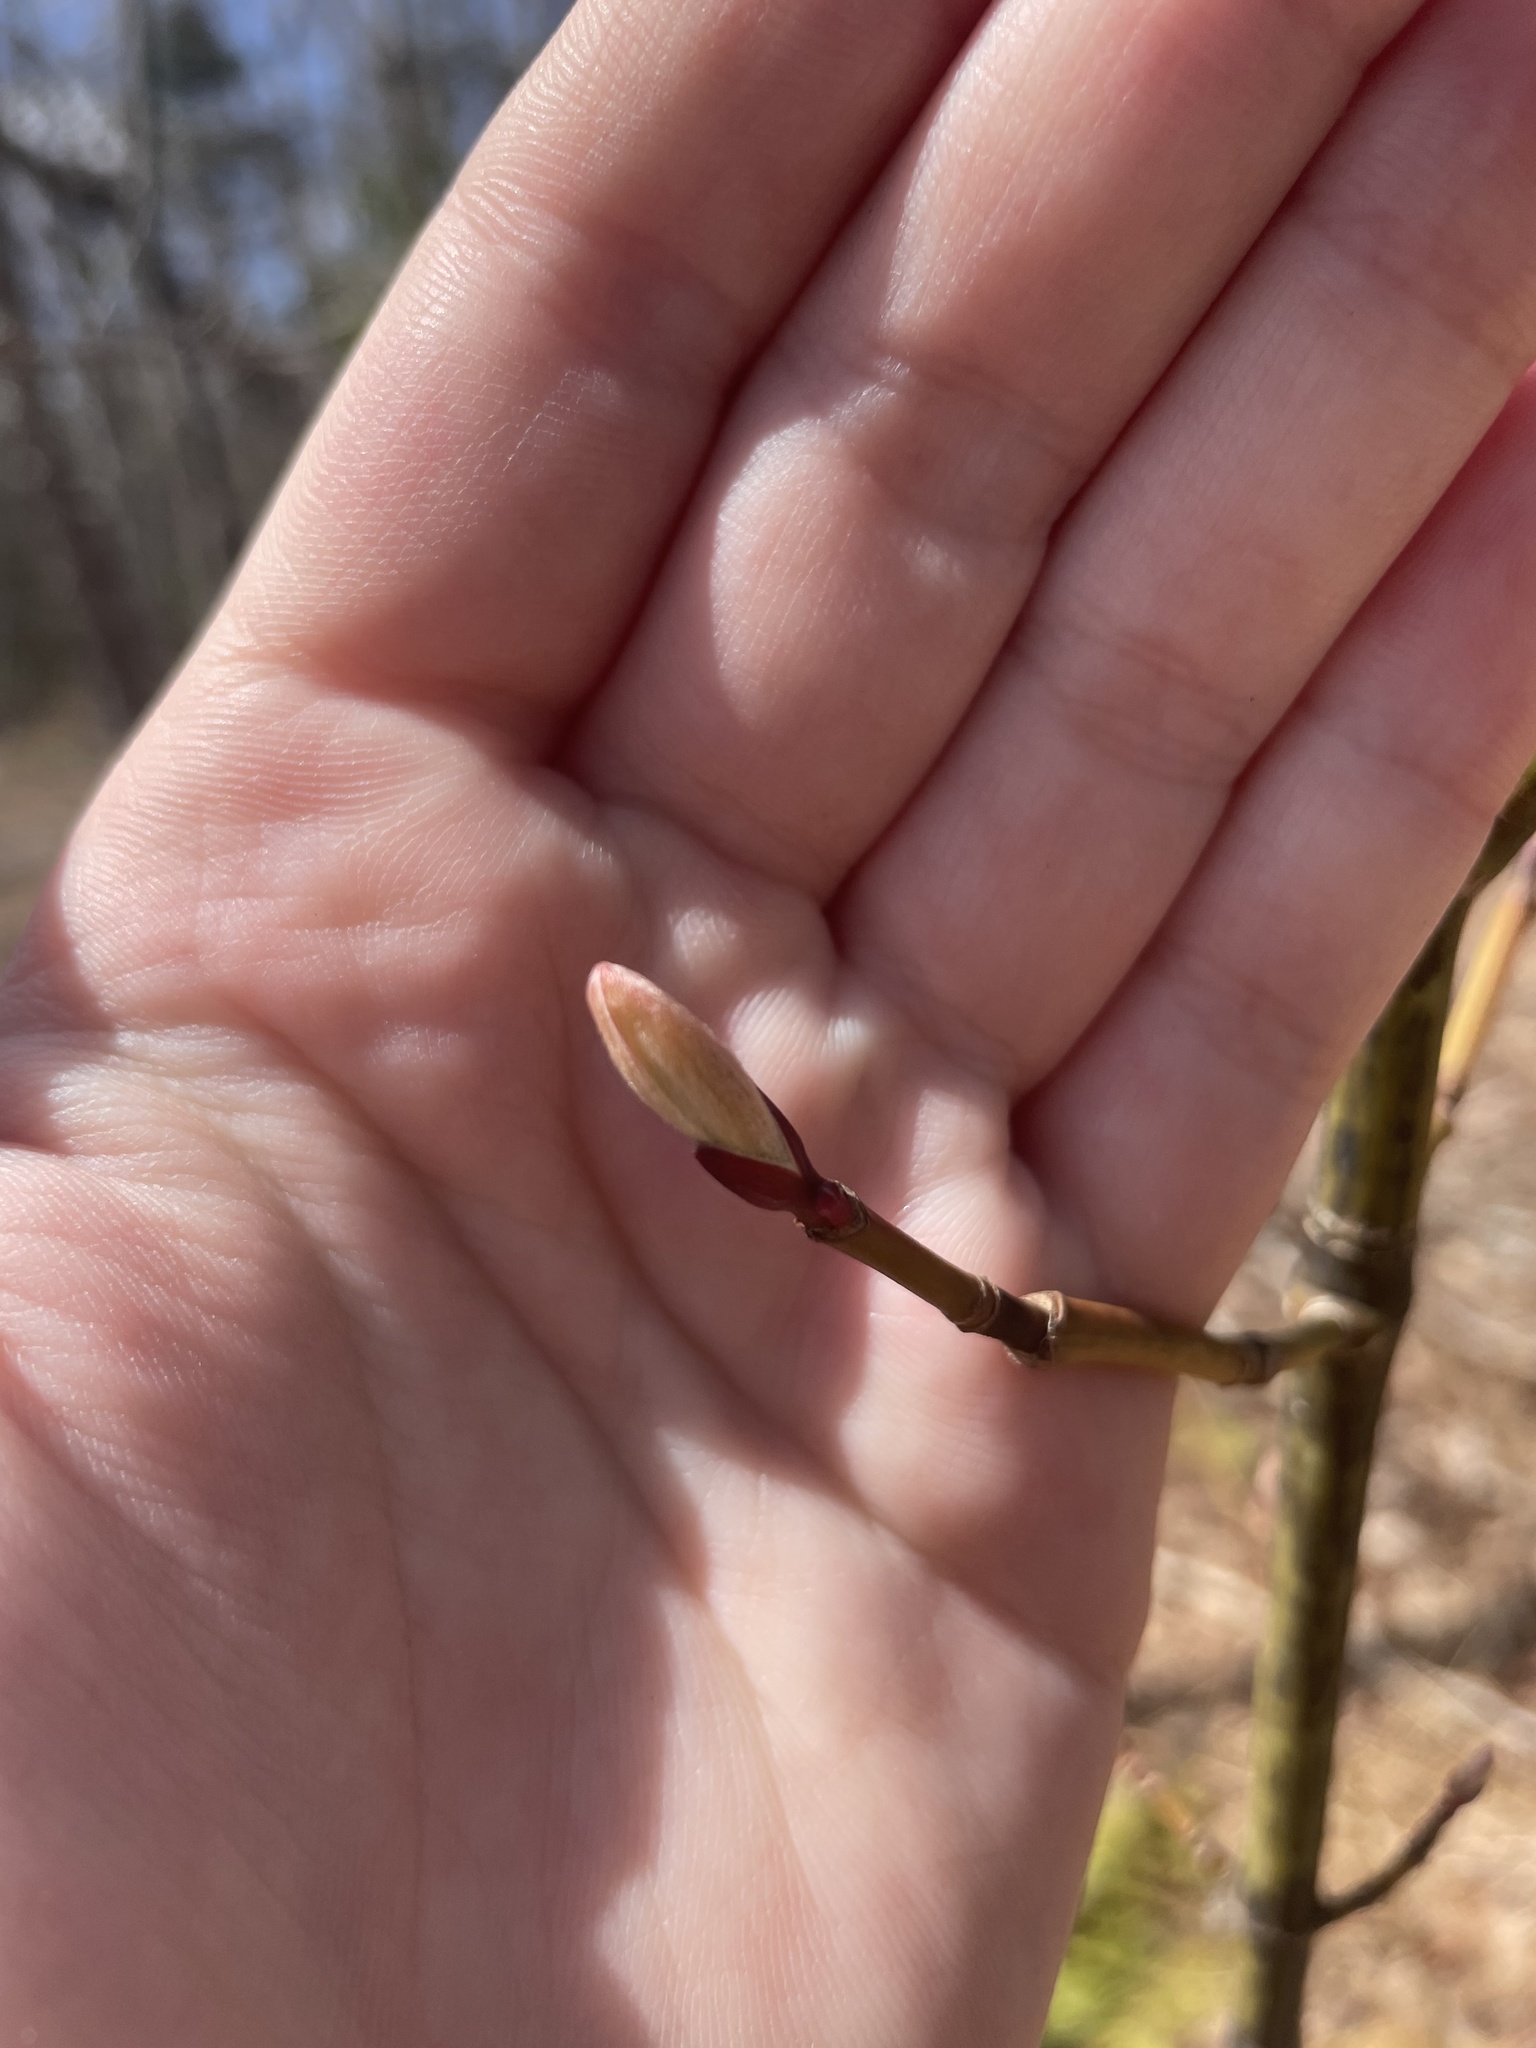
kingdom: Plantae
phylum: Tracheophyta
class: Magnoliopsida
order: Sapindales
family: Sapindaceae
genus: Acer
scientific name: Acer pensylvanicum
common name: Moosewood
